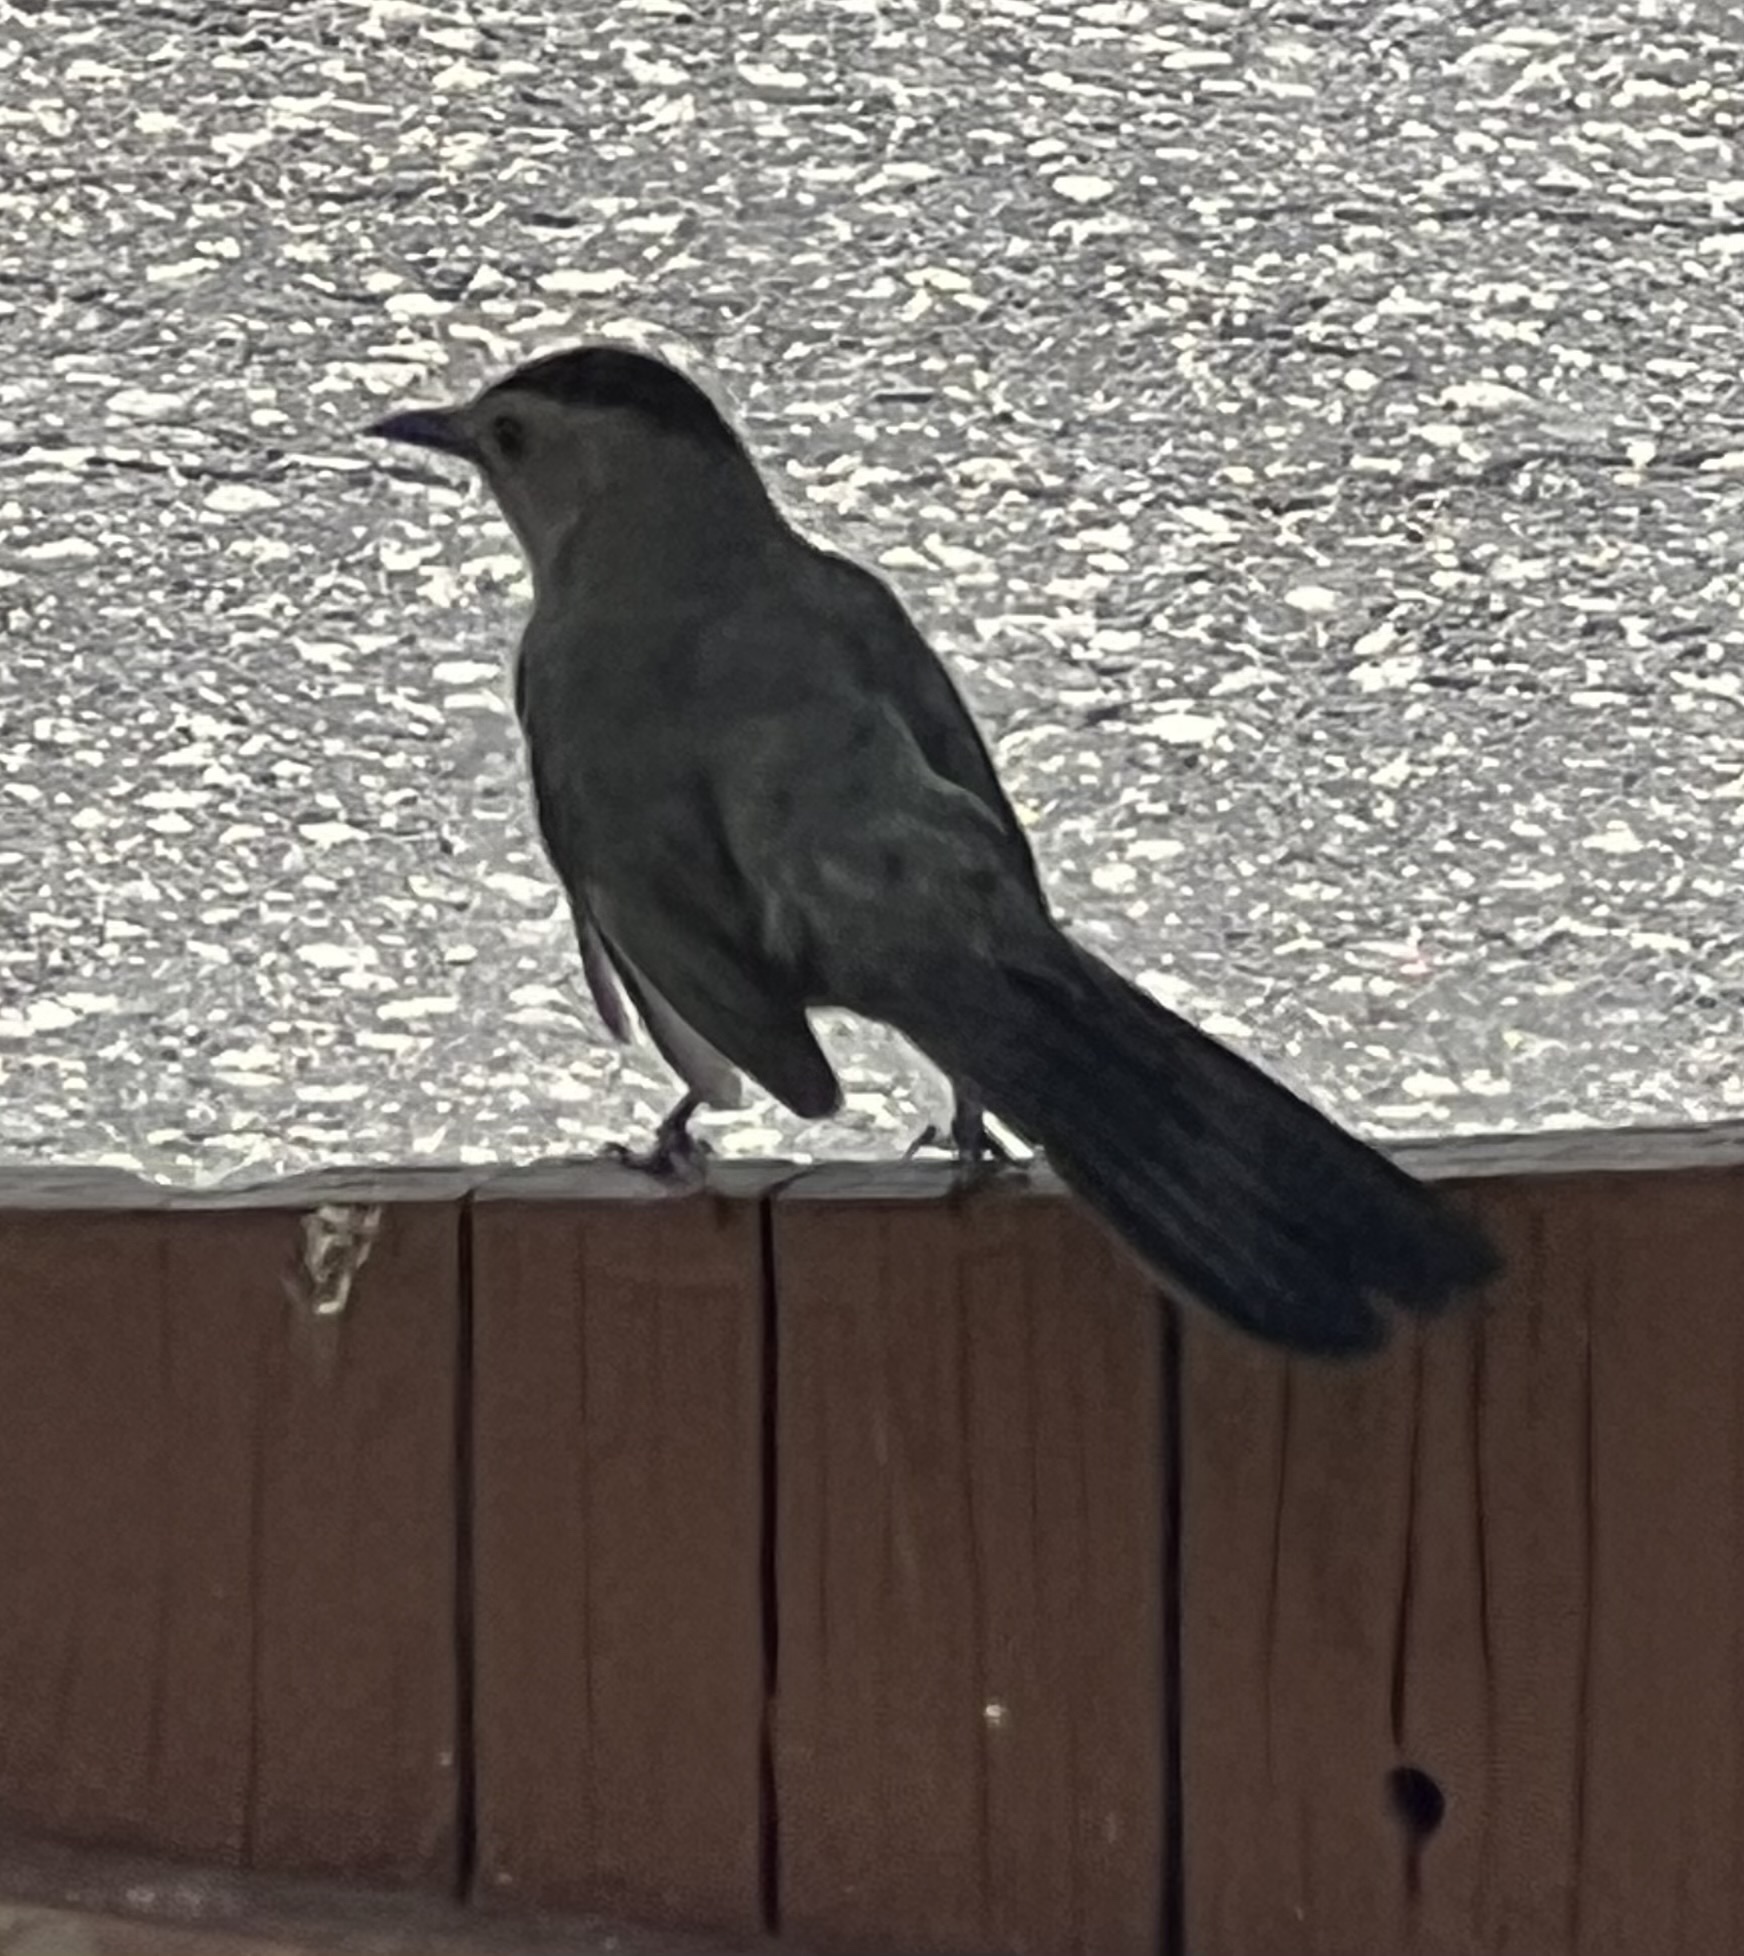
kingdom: Animalia
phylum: Chordata
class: Aves
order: Passeriformes
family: Mimidae
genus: Dumetella
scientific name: Dumetella carolinensis
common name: Gray catbird
